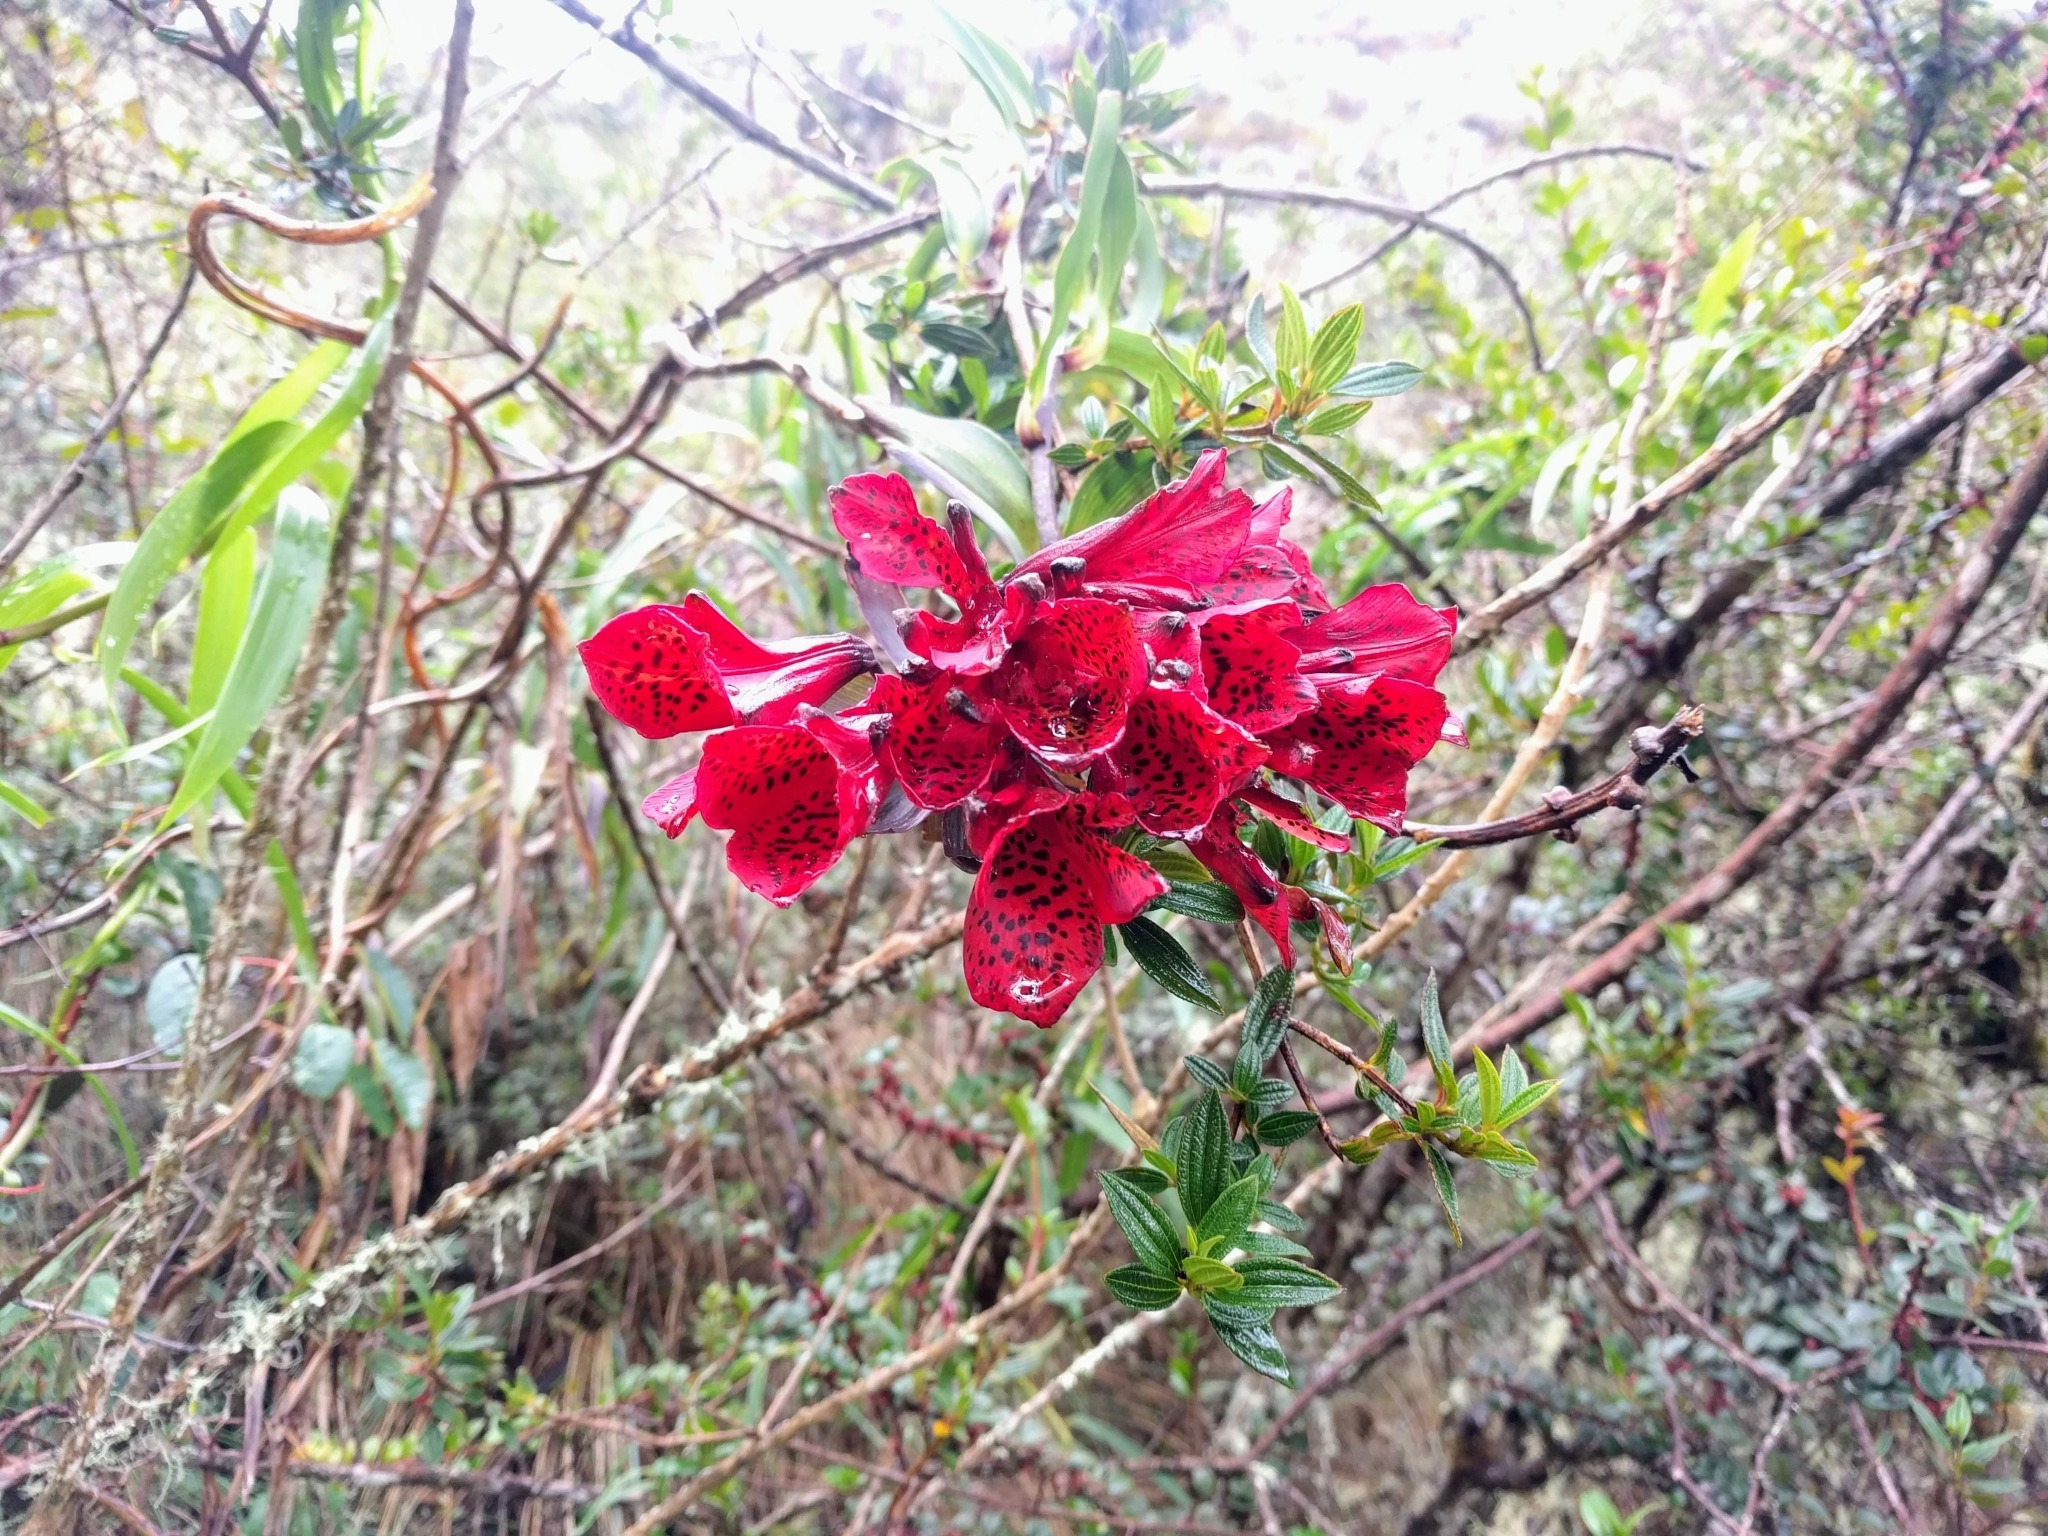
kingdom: Plantae
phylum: Tracheophyta
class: Liliopsida
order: Liliales
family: Alstroemeriaceae
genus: Bomarea
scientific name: Bomarea formosissima
